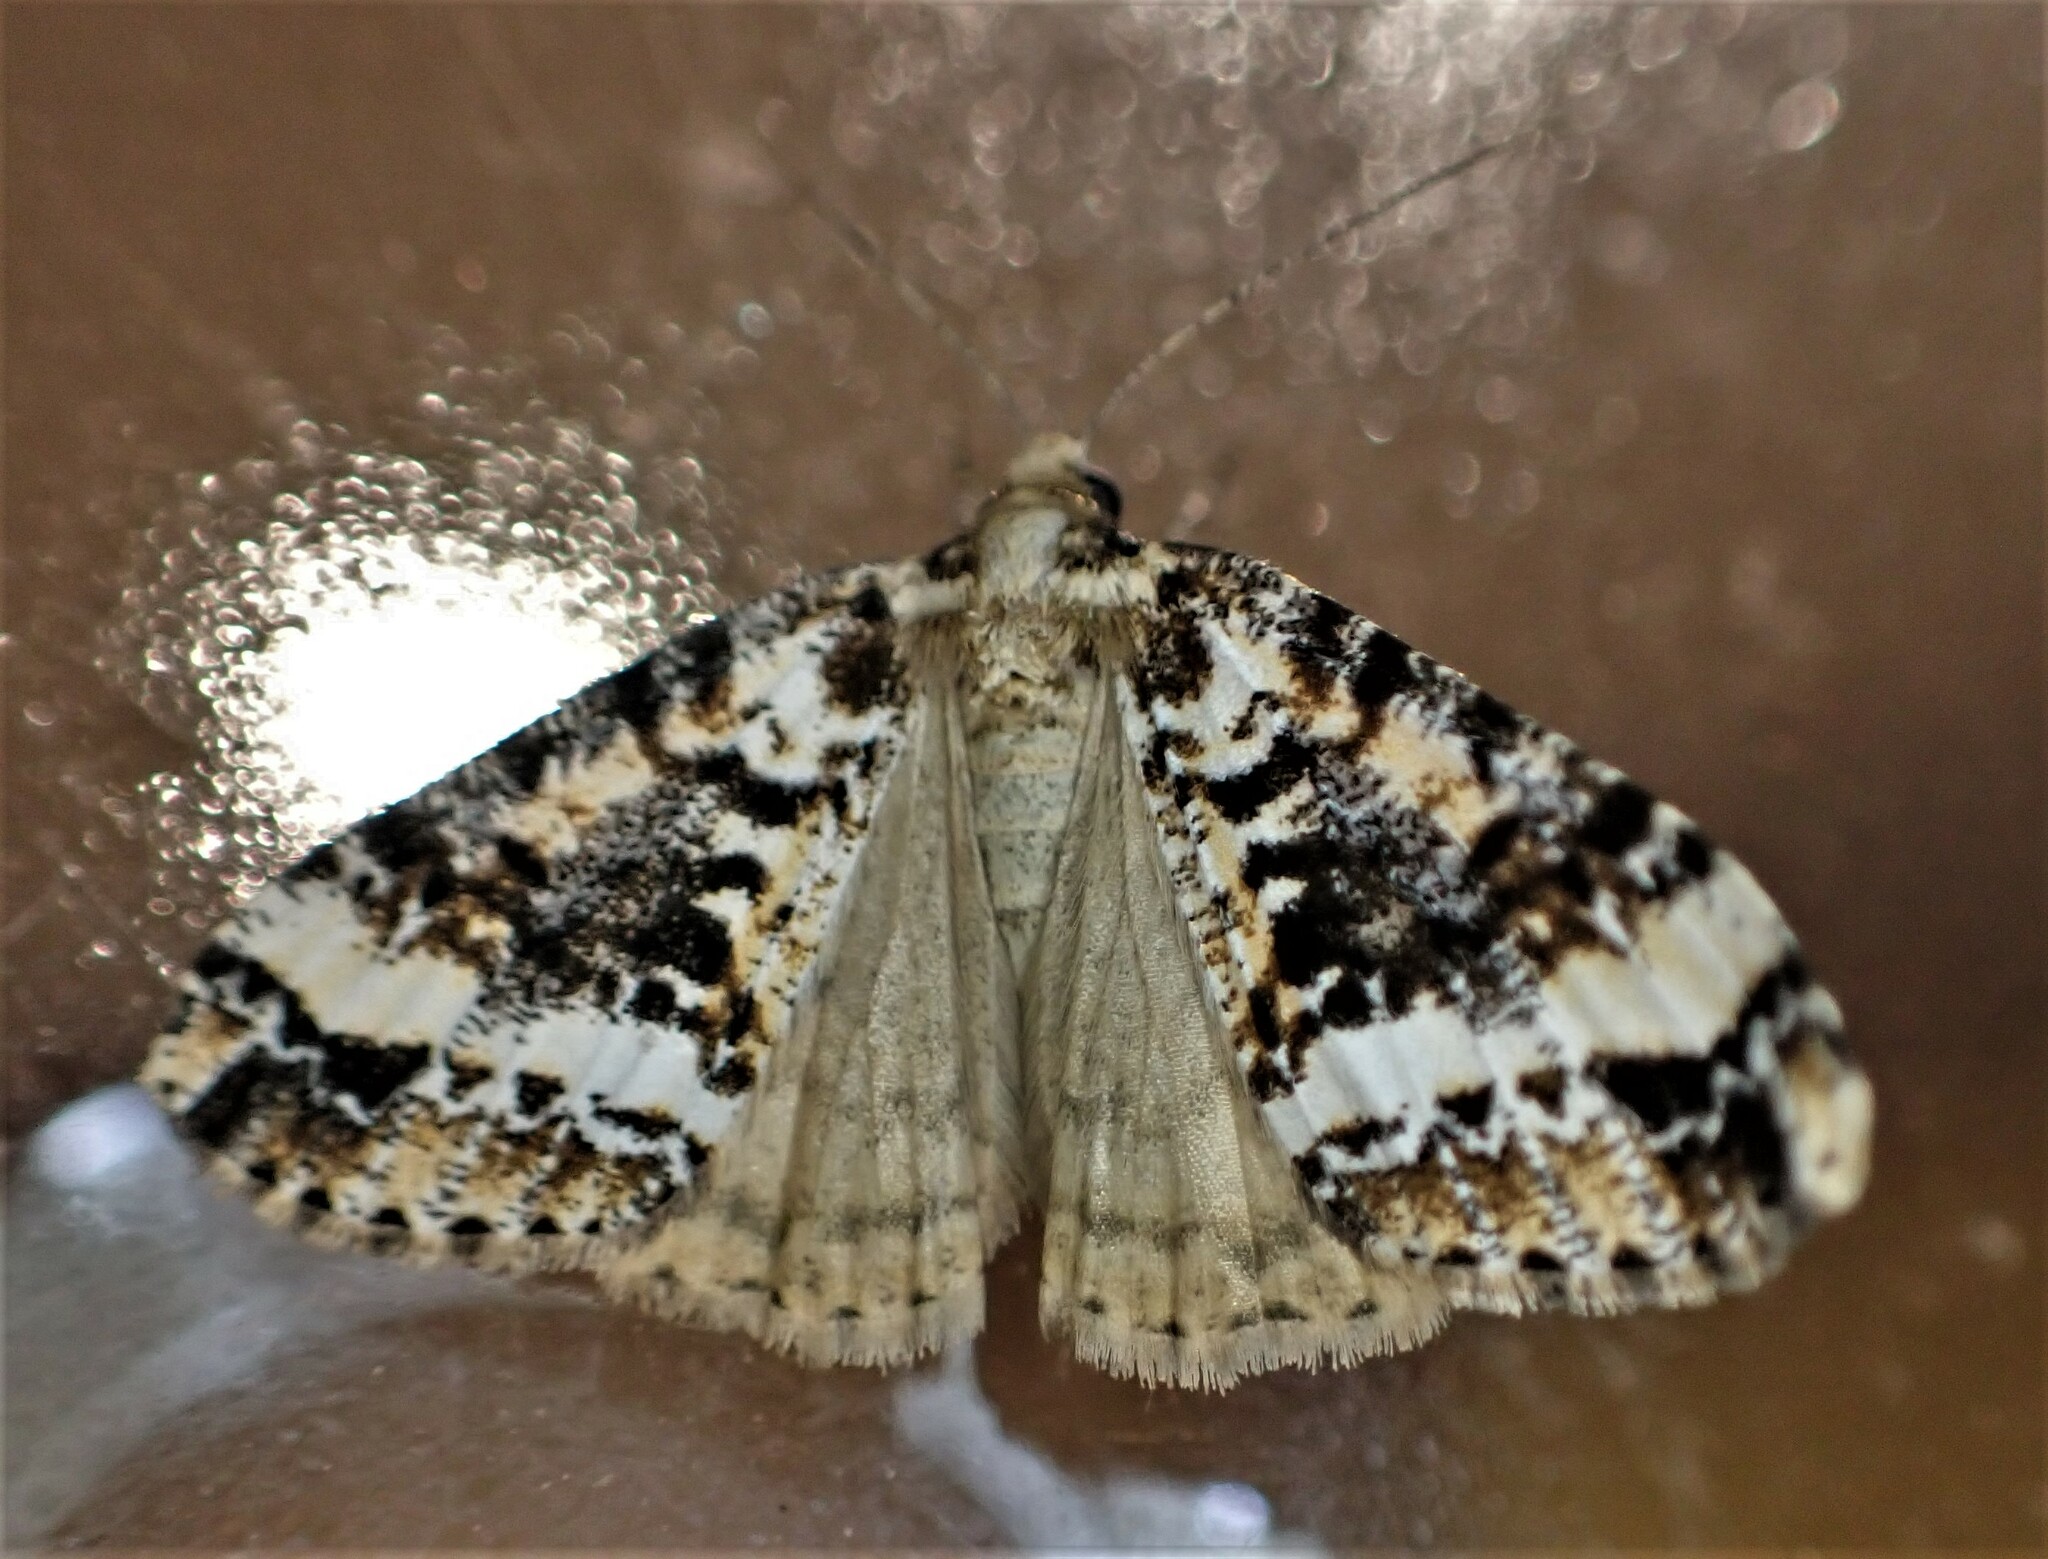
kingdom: Animalia
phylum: Arthropoda
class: Insecta
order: Lepidoptera
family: Geometridae
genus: Pseudocoremia
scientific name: Pseudocoremia leucelaea
